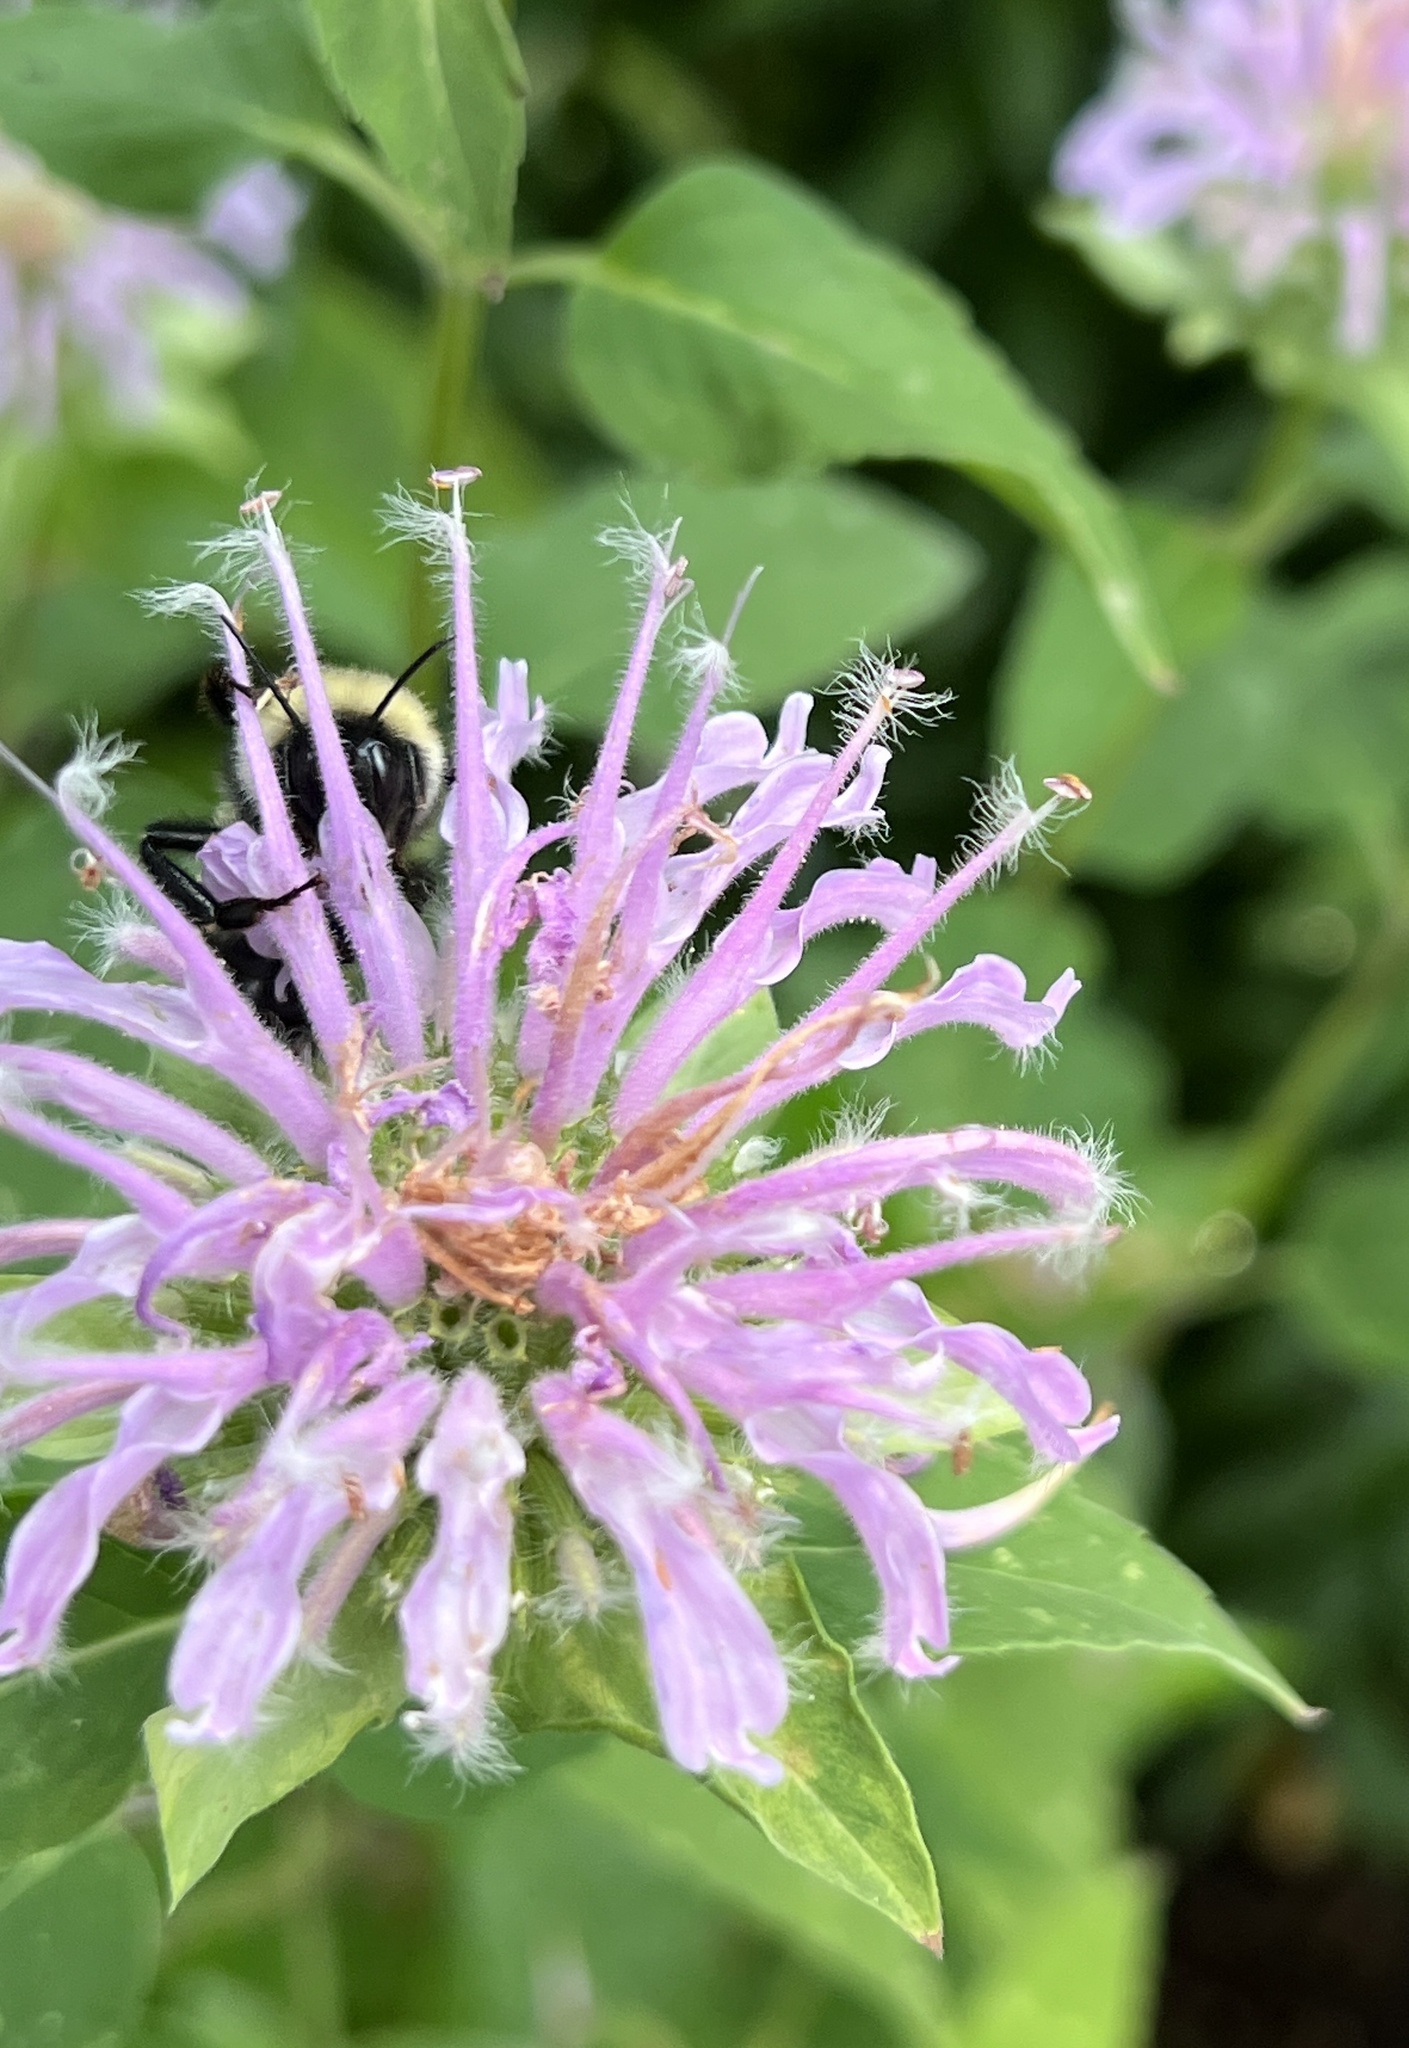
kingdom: Animalia
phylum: Arthropoda
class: Insecta
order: Hymenoptera
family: Apidae
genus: Bombus
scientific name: Bombus fervidus
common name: Yellow bumble bee
